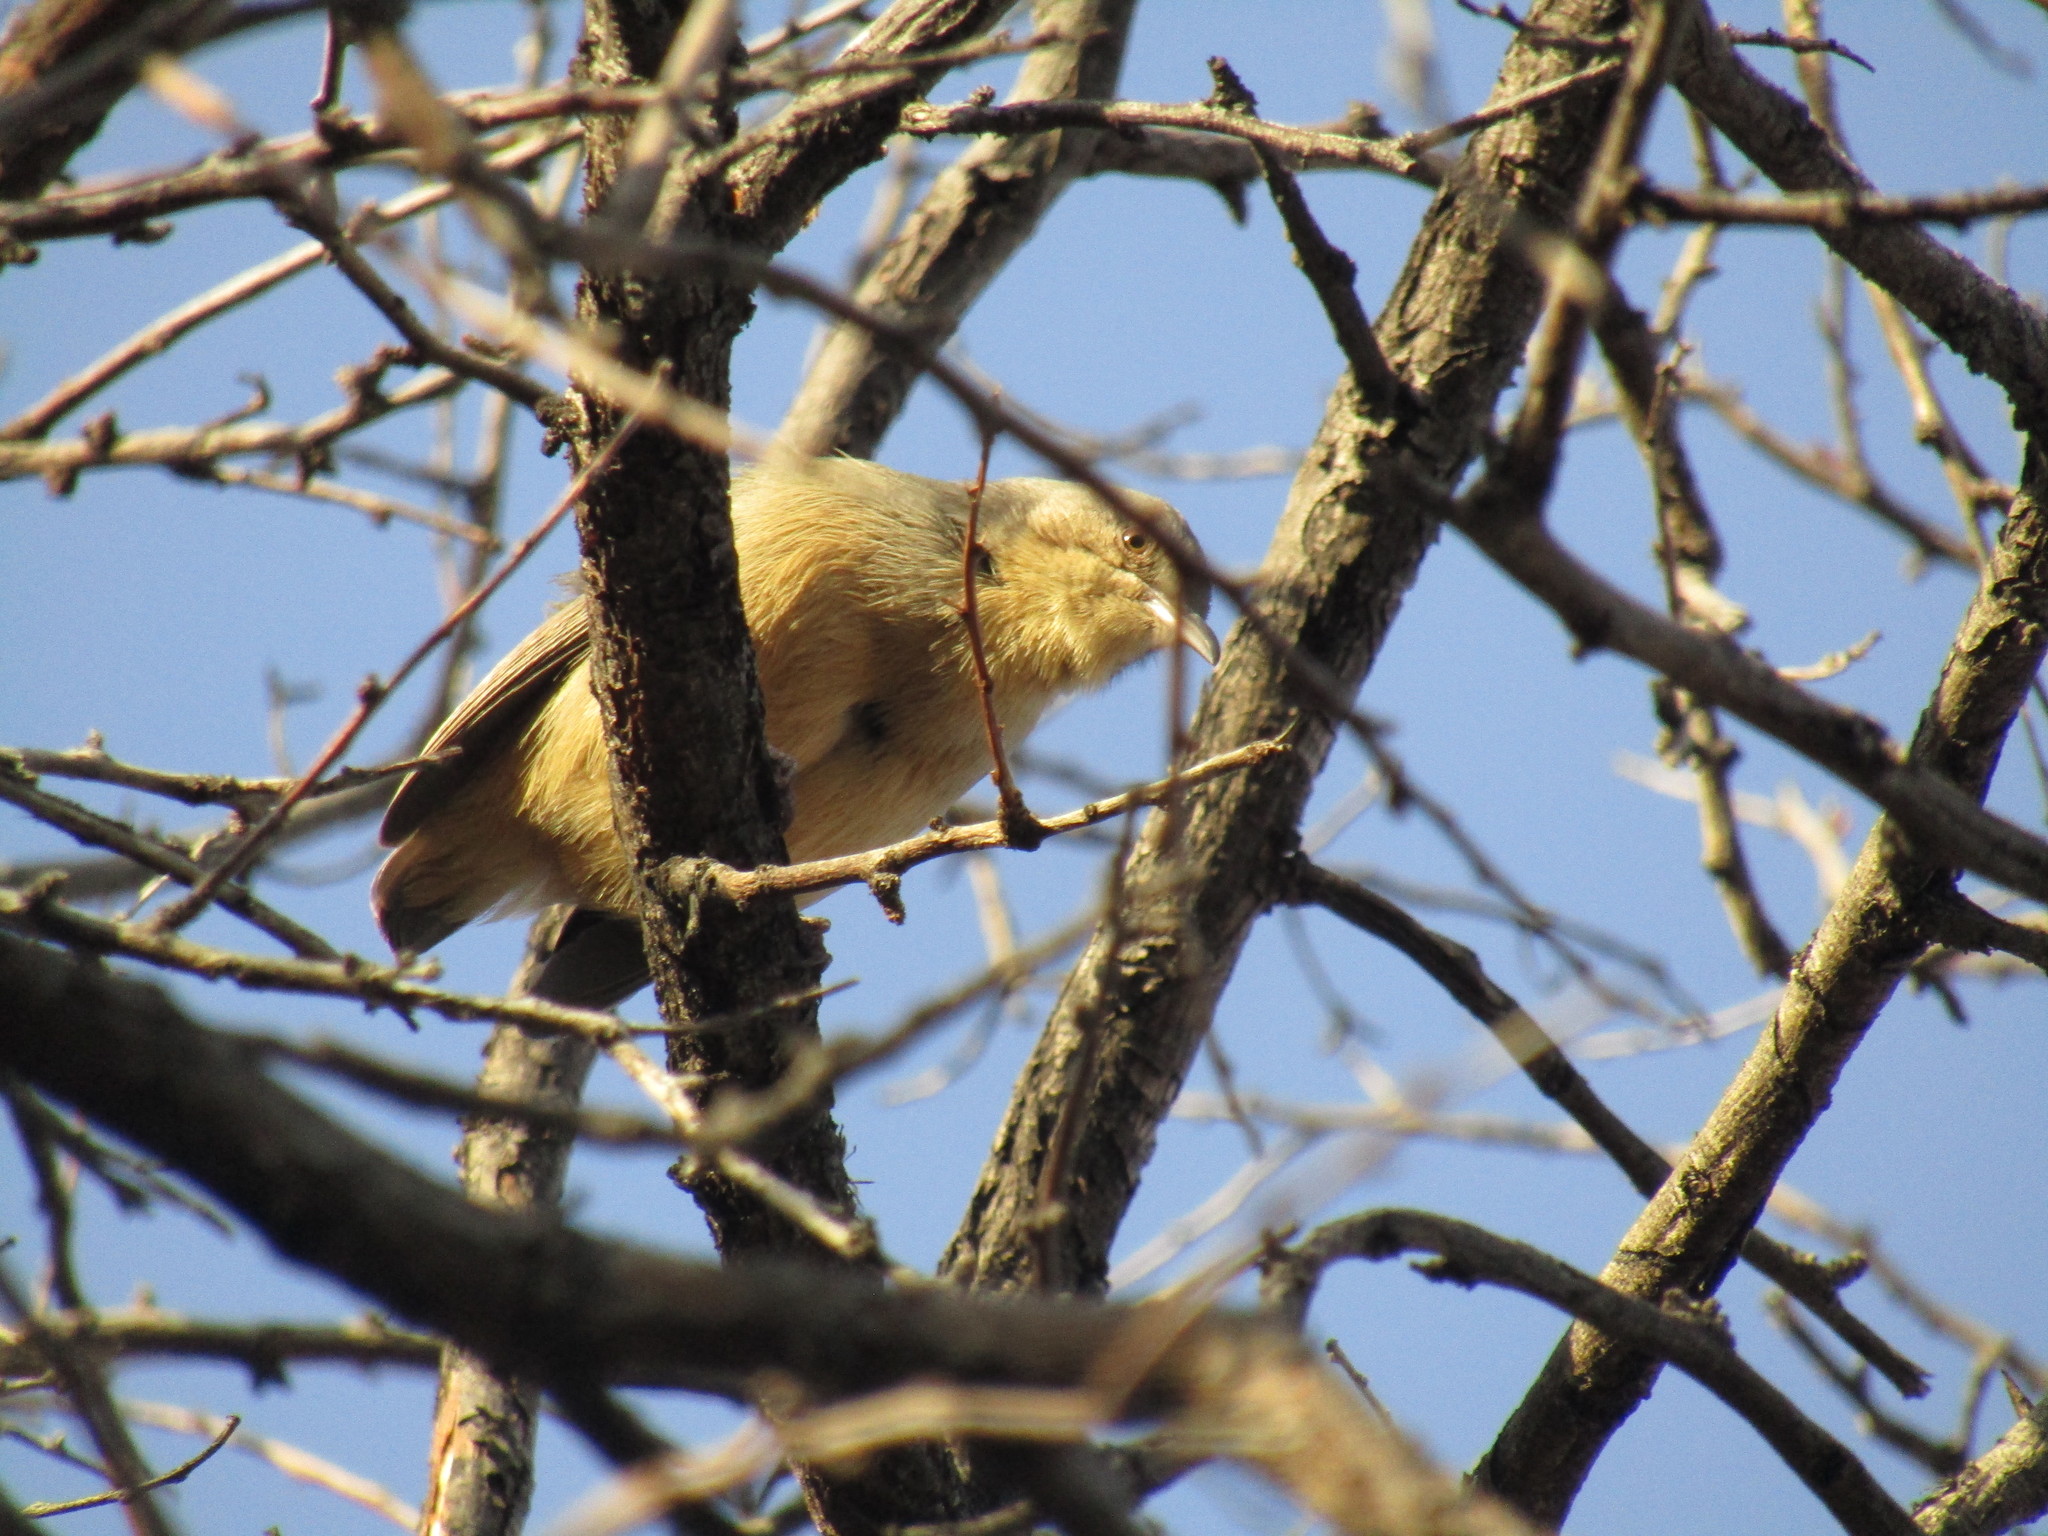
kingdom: Animalia
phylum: Chordata
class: Aves
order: Passeriformes
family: Macrosphenidae
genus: Sylvietta
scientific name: Sylvietta rufescens
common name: Long-billed crombec
